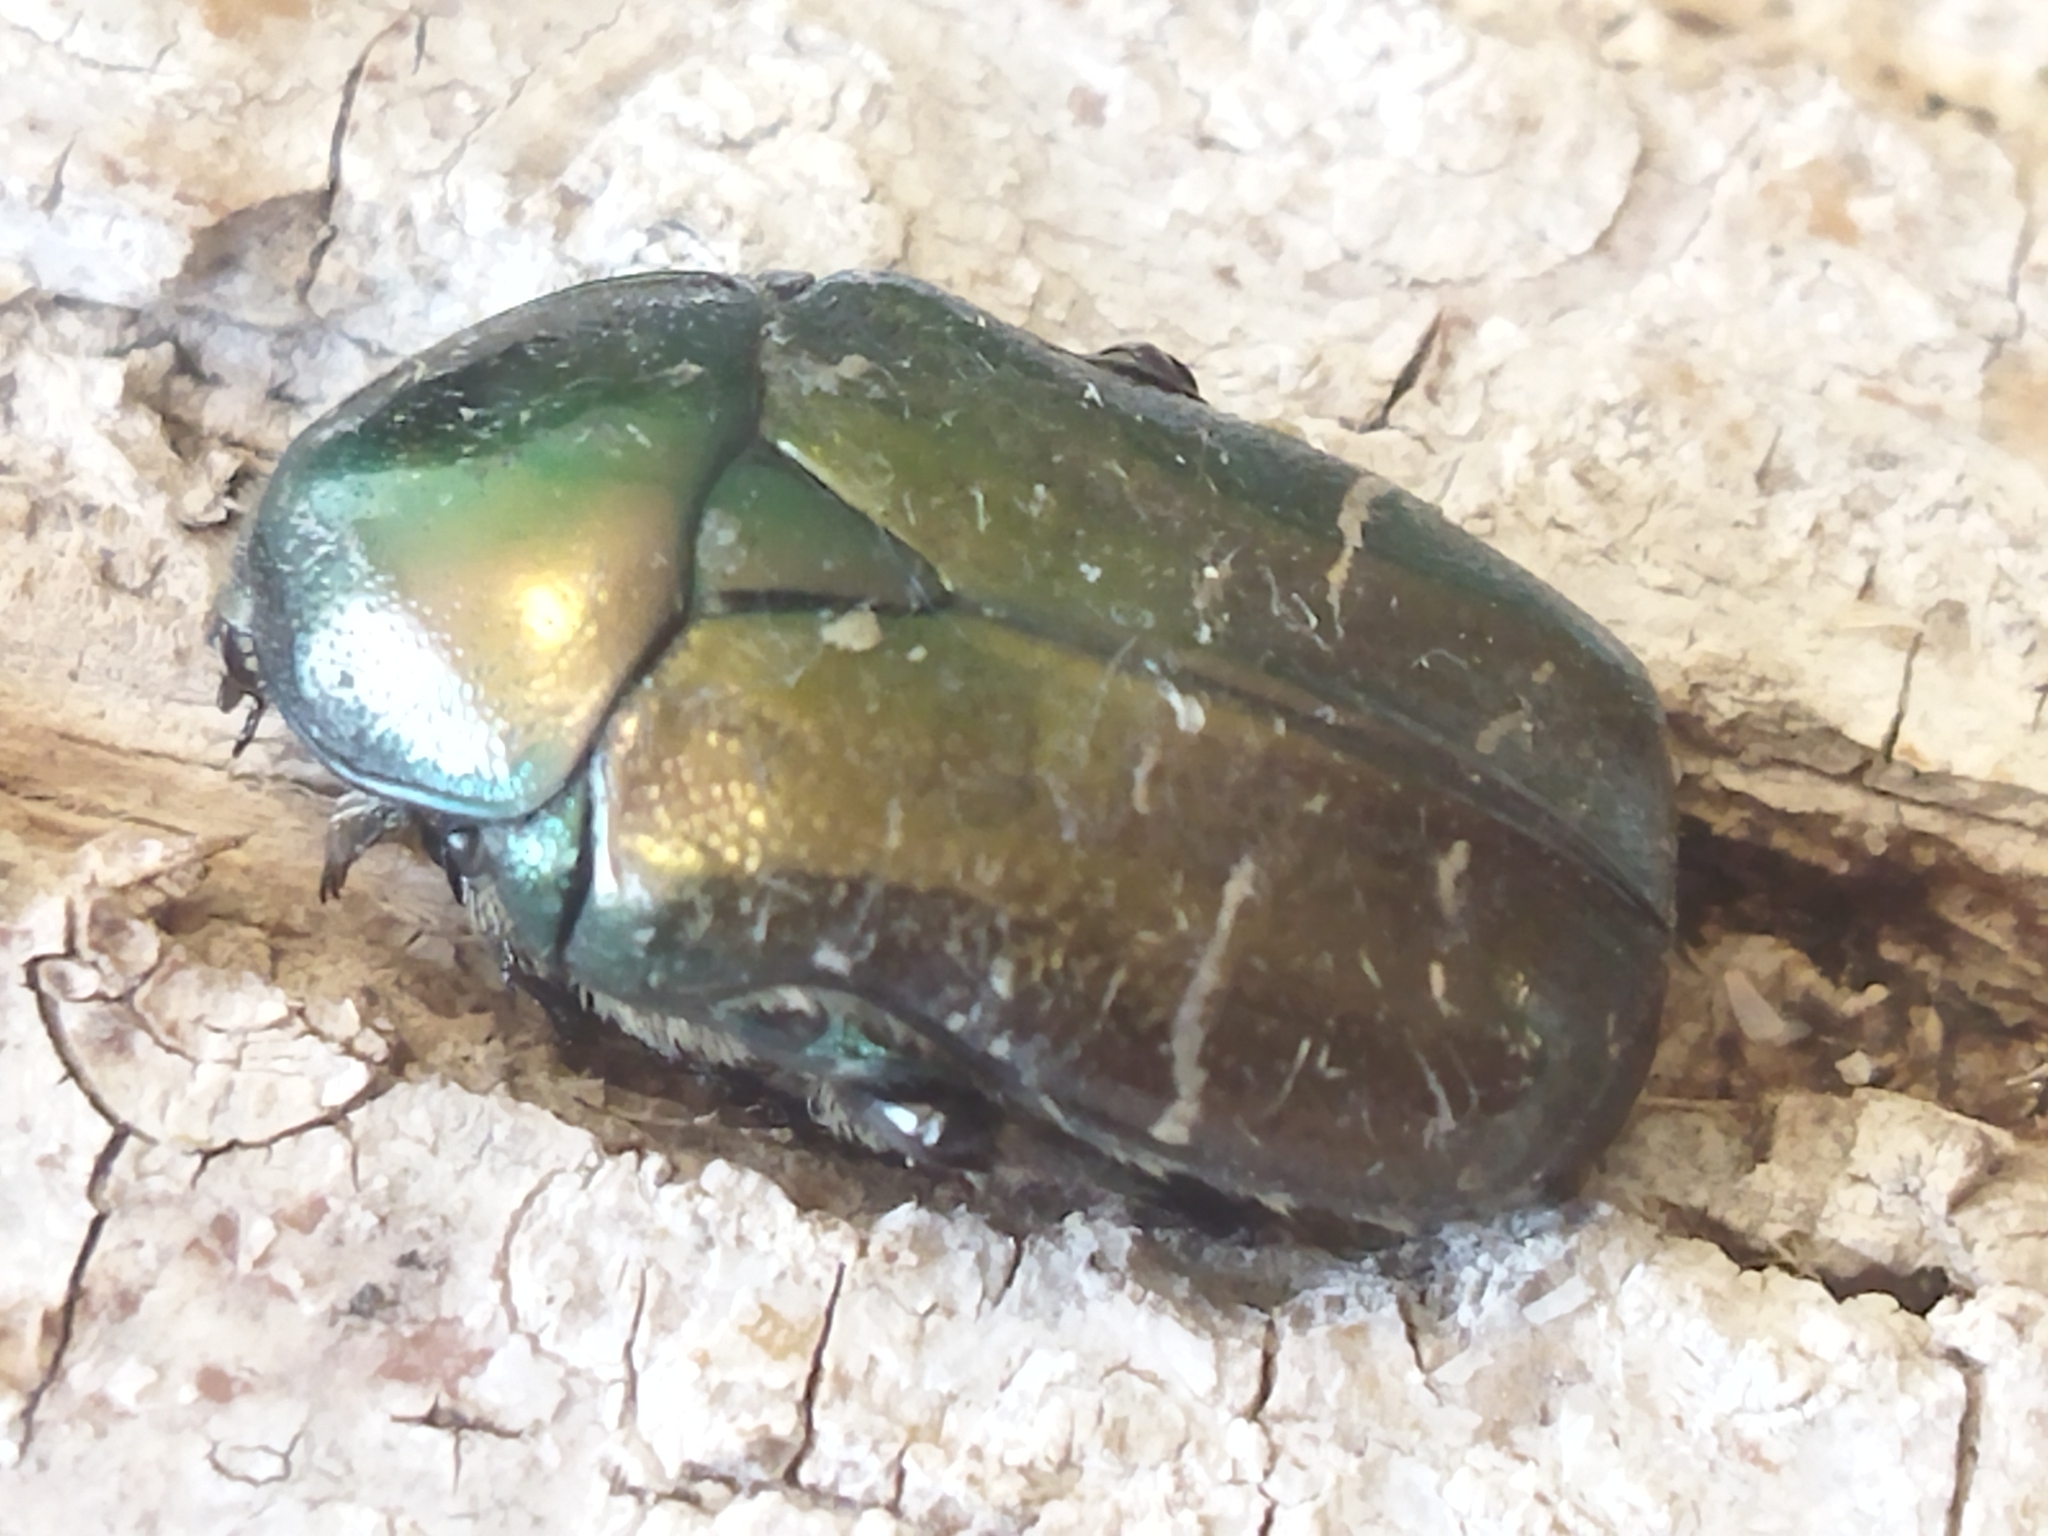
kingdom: Animalia
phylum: Arthropoda
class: Insecta
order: Coleoptera
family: Scarabaeidae
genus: Cetonia
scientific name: Cetonia aurata
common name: Rose chafer
